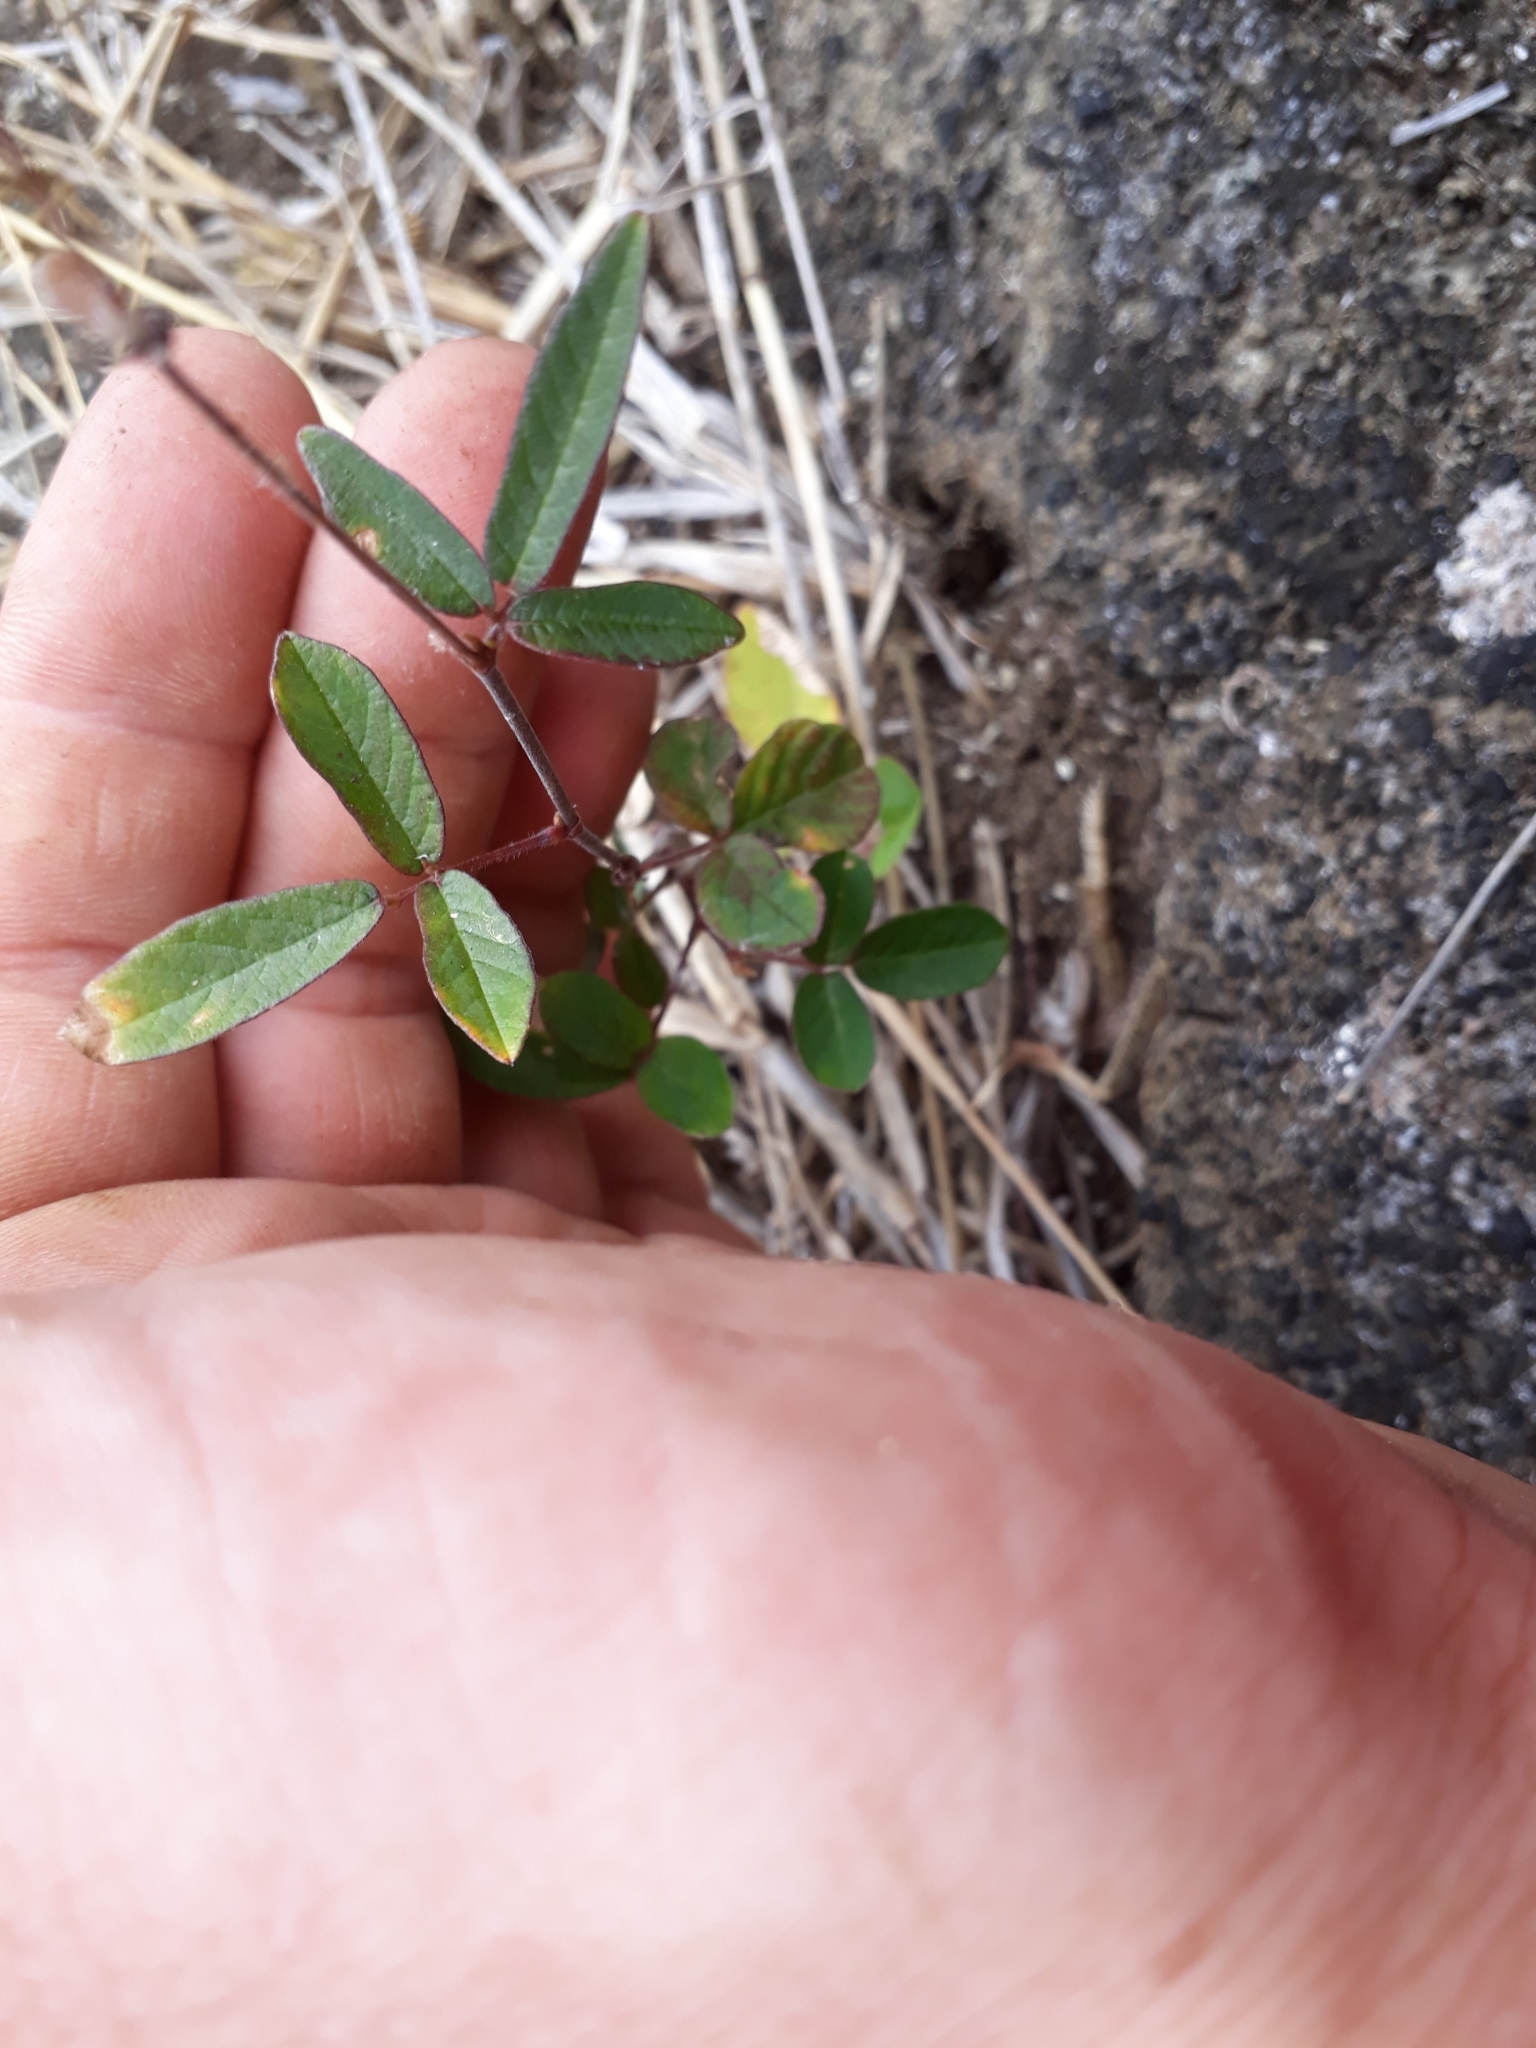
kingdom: Plantae
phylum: Tracheophyta
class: Magnoliopsida
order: Fabales
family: Fabaceae
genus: Desmodium
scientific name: Desmodium incanum
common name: Tickclover
